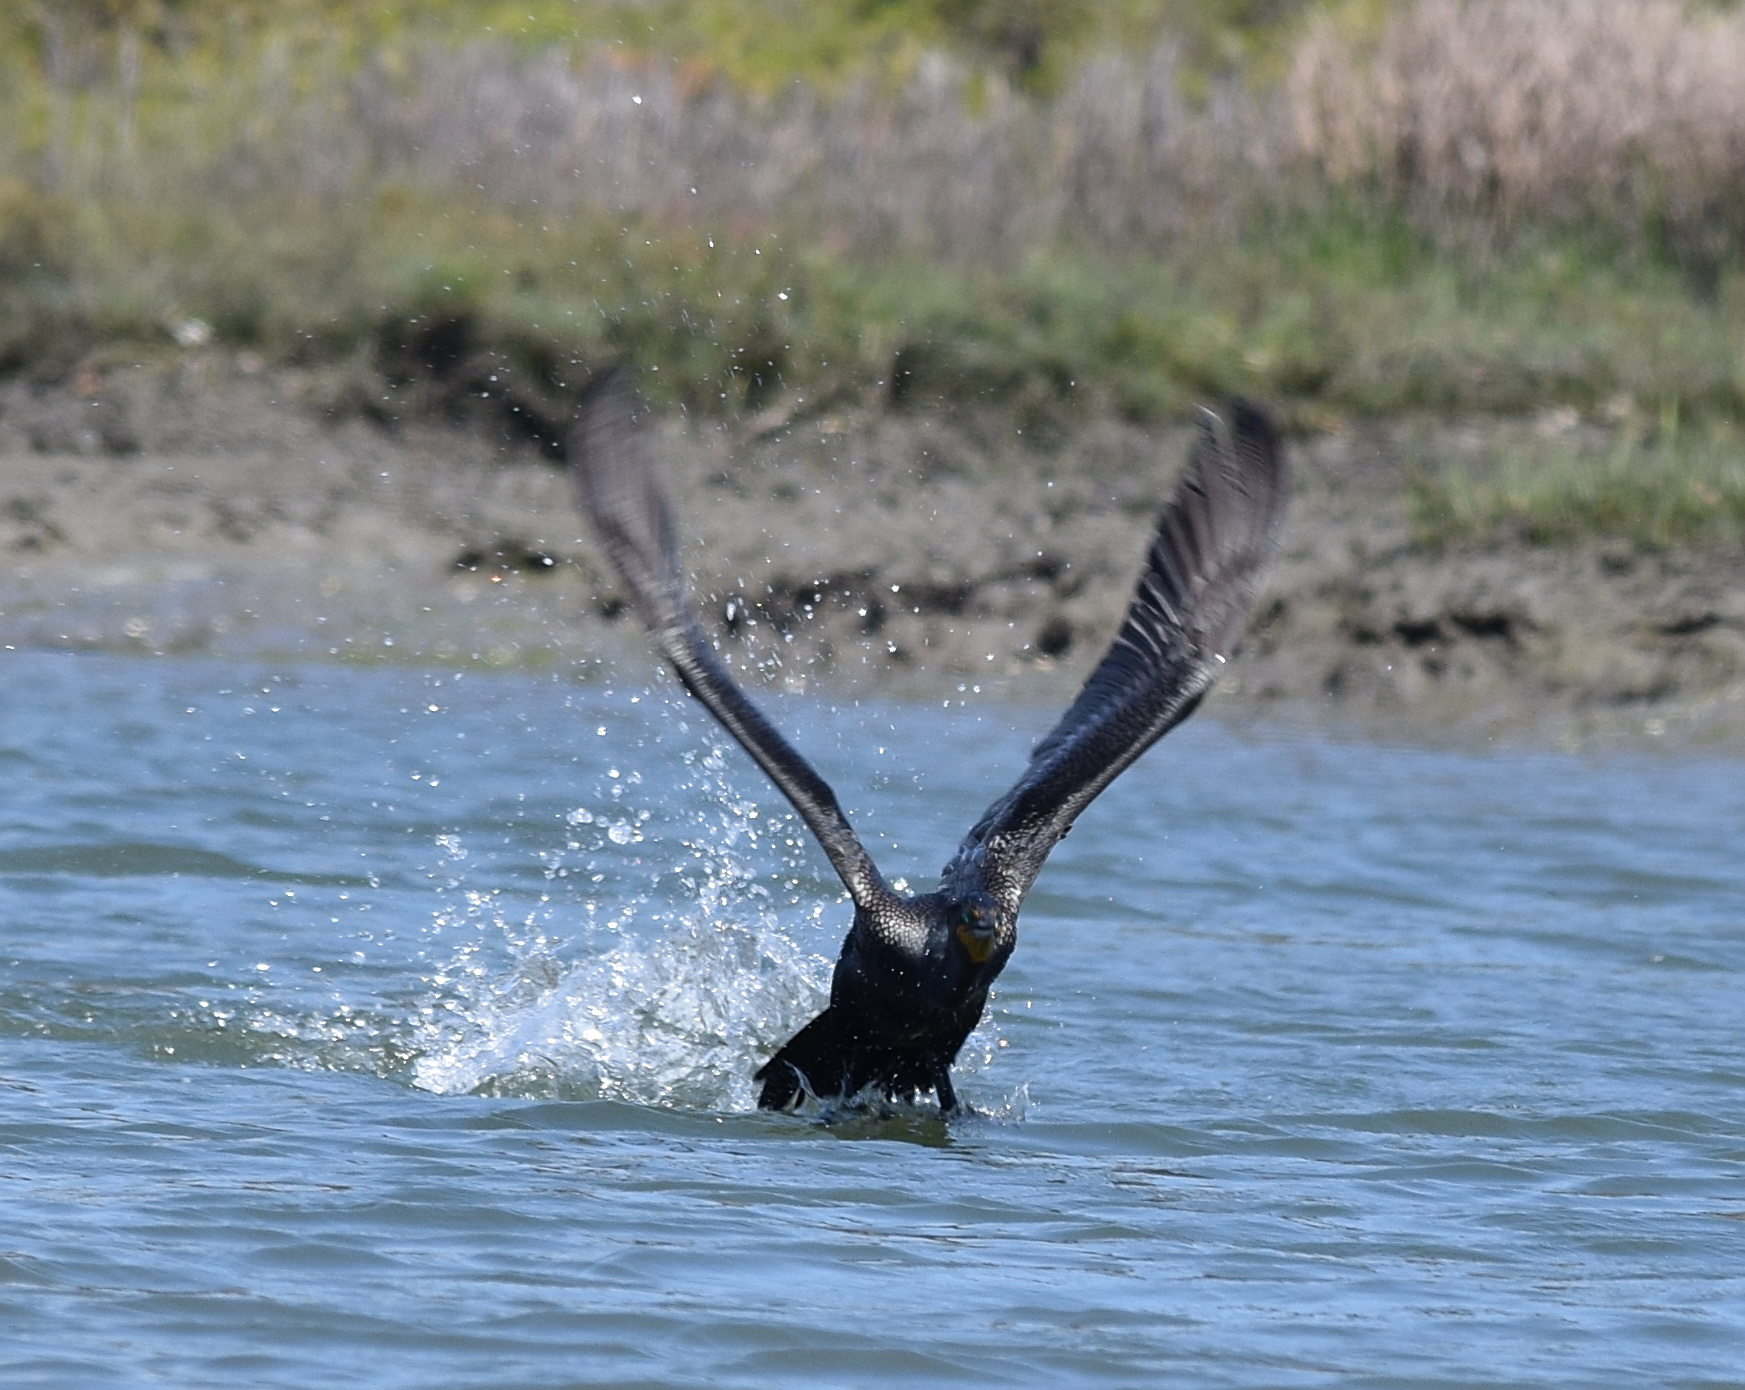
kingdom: Animalia
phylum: Chordata
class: Aves
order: Suliformes
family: Phalacrocoracidae
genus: Phalacrocorax
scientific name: Phalacrocorax auritus
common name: Double-crested cormorant
